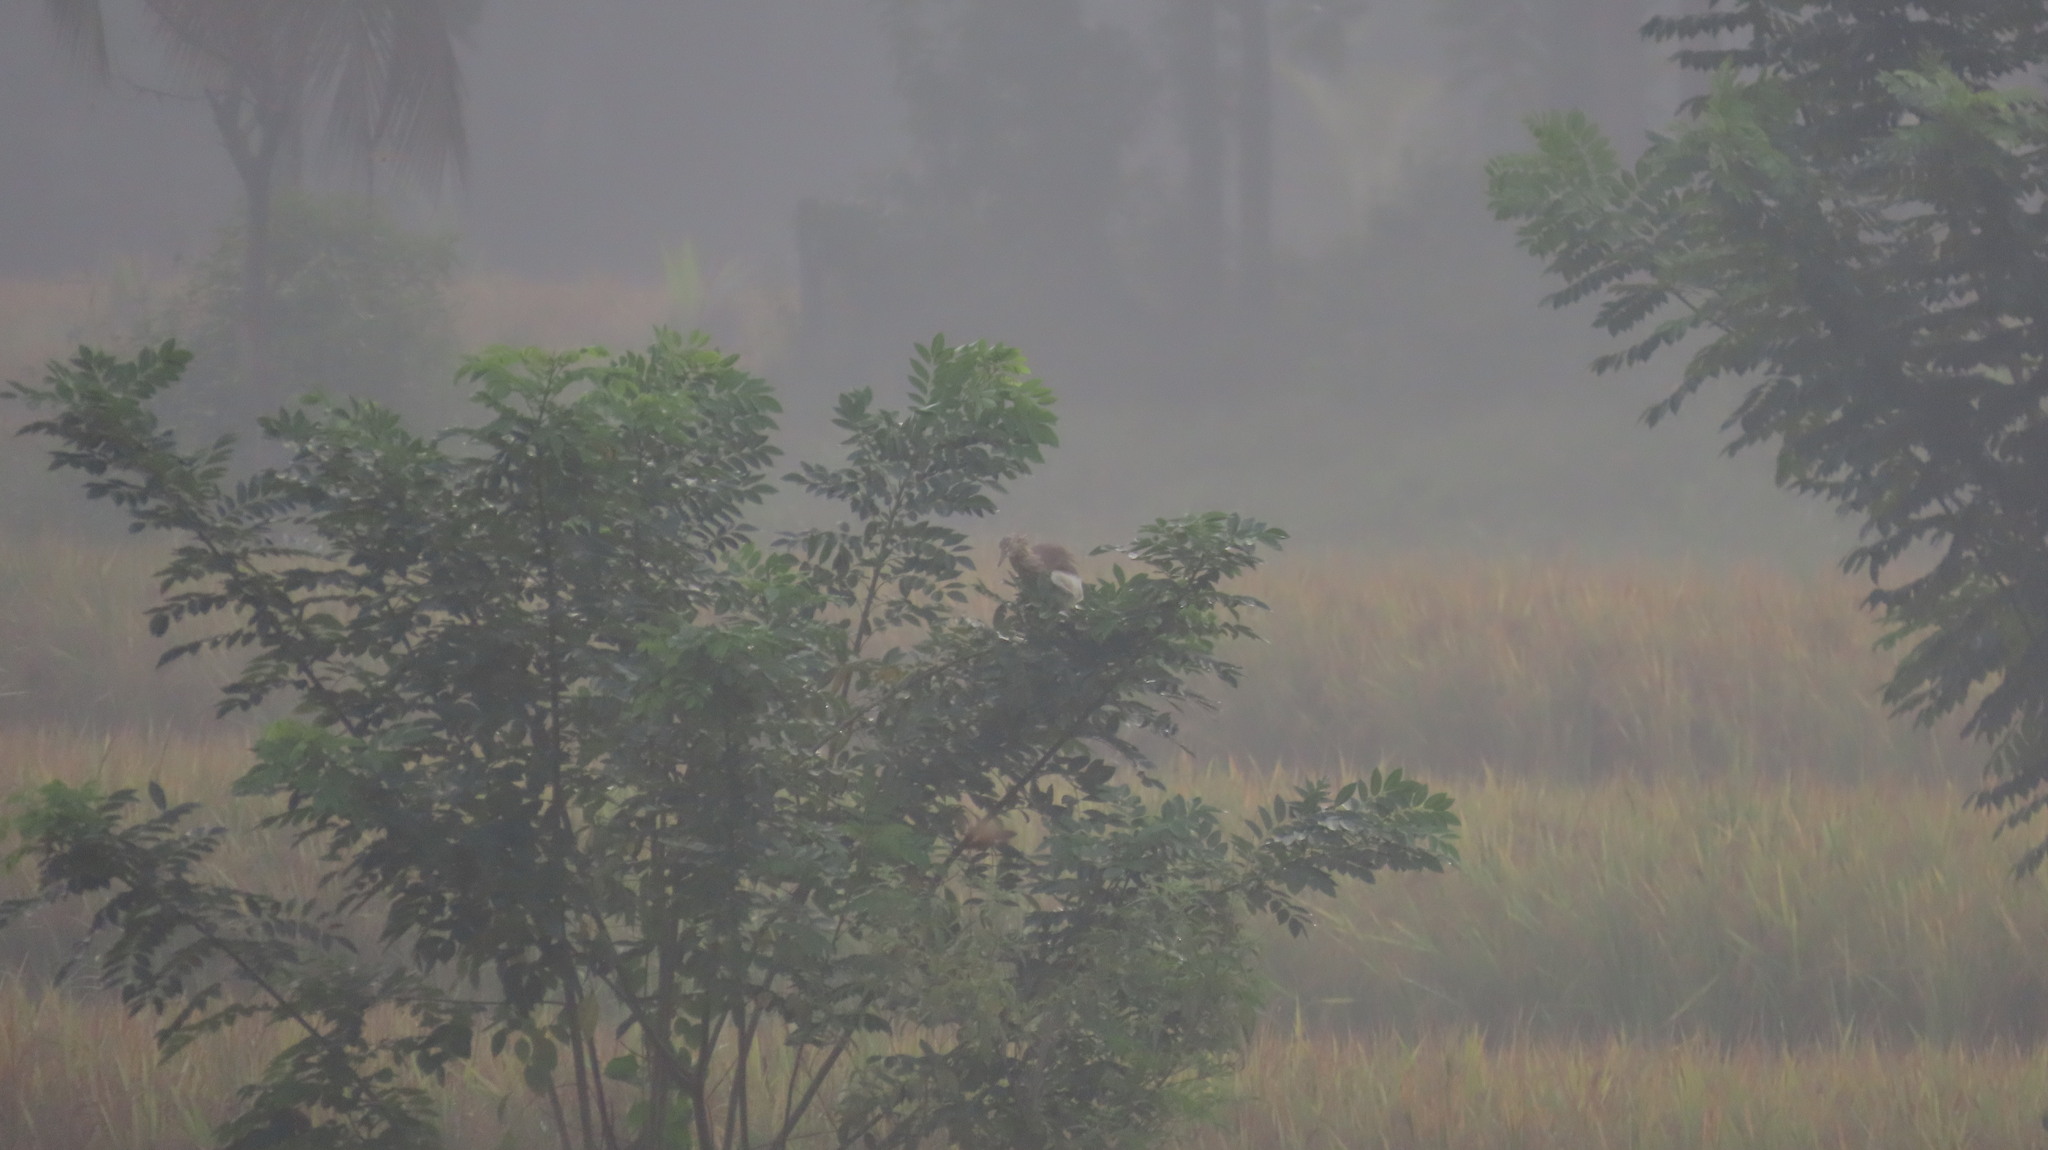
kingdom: Animalia
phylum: Chordata
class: Aves
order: Pelecaniformes
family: Ardeidae
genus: Ardeola
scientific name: Ardeola grayii
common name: Indian pond heron
